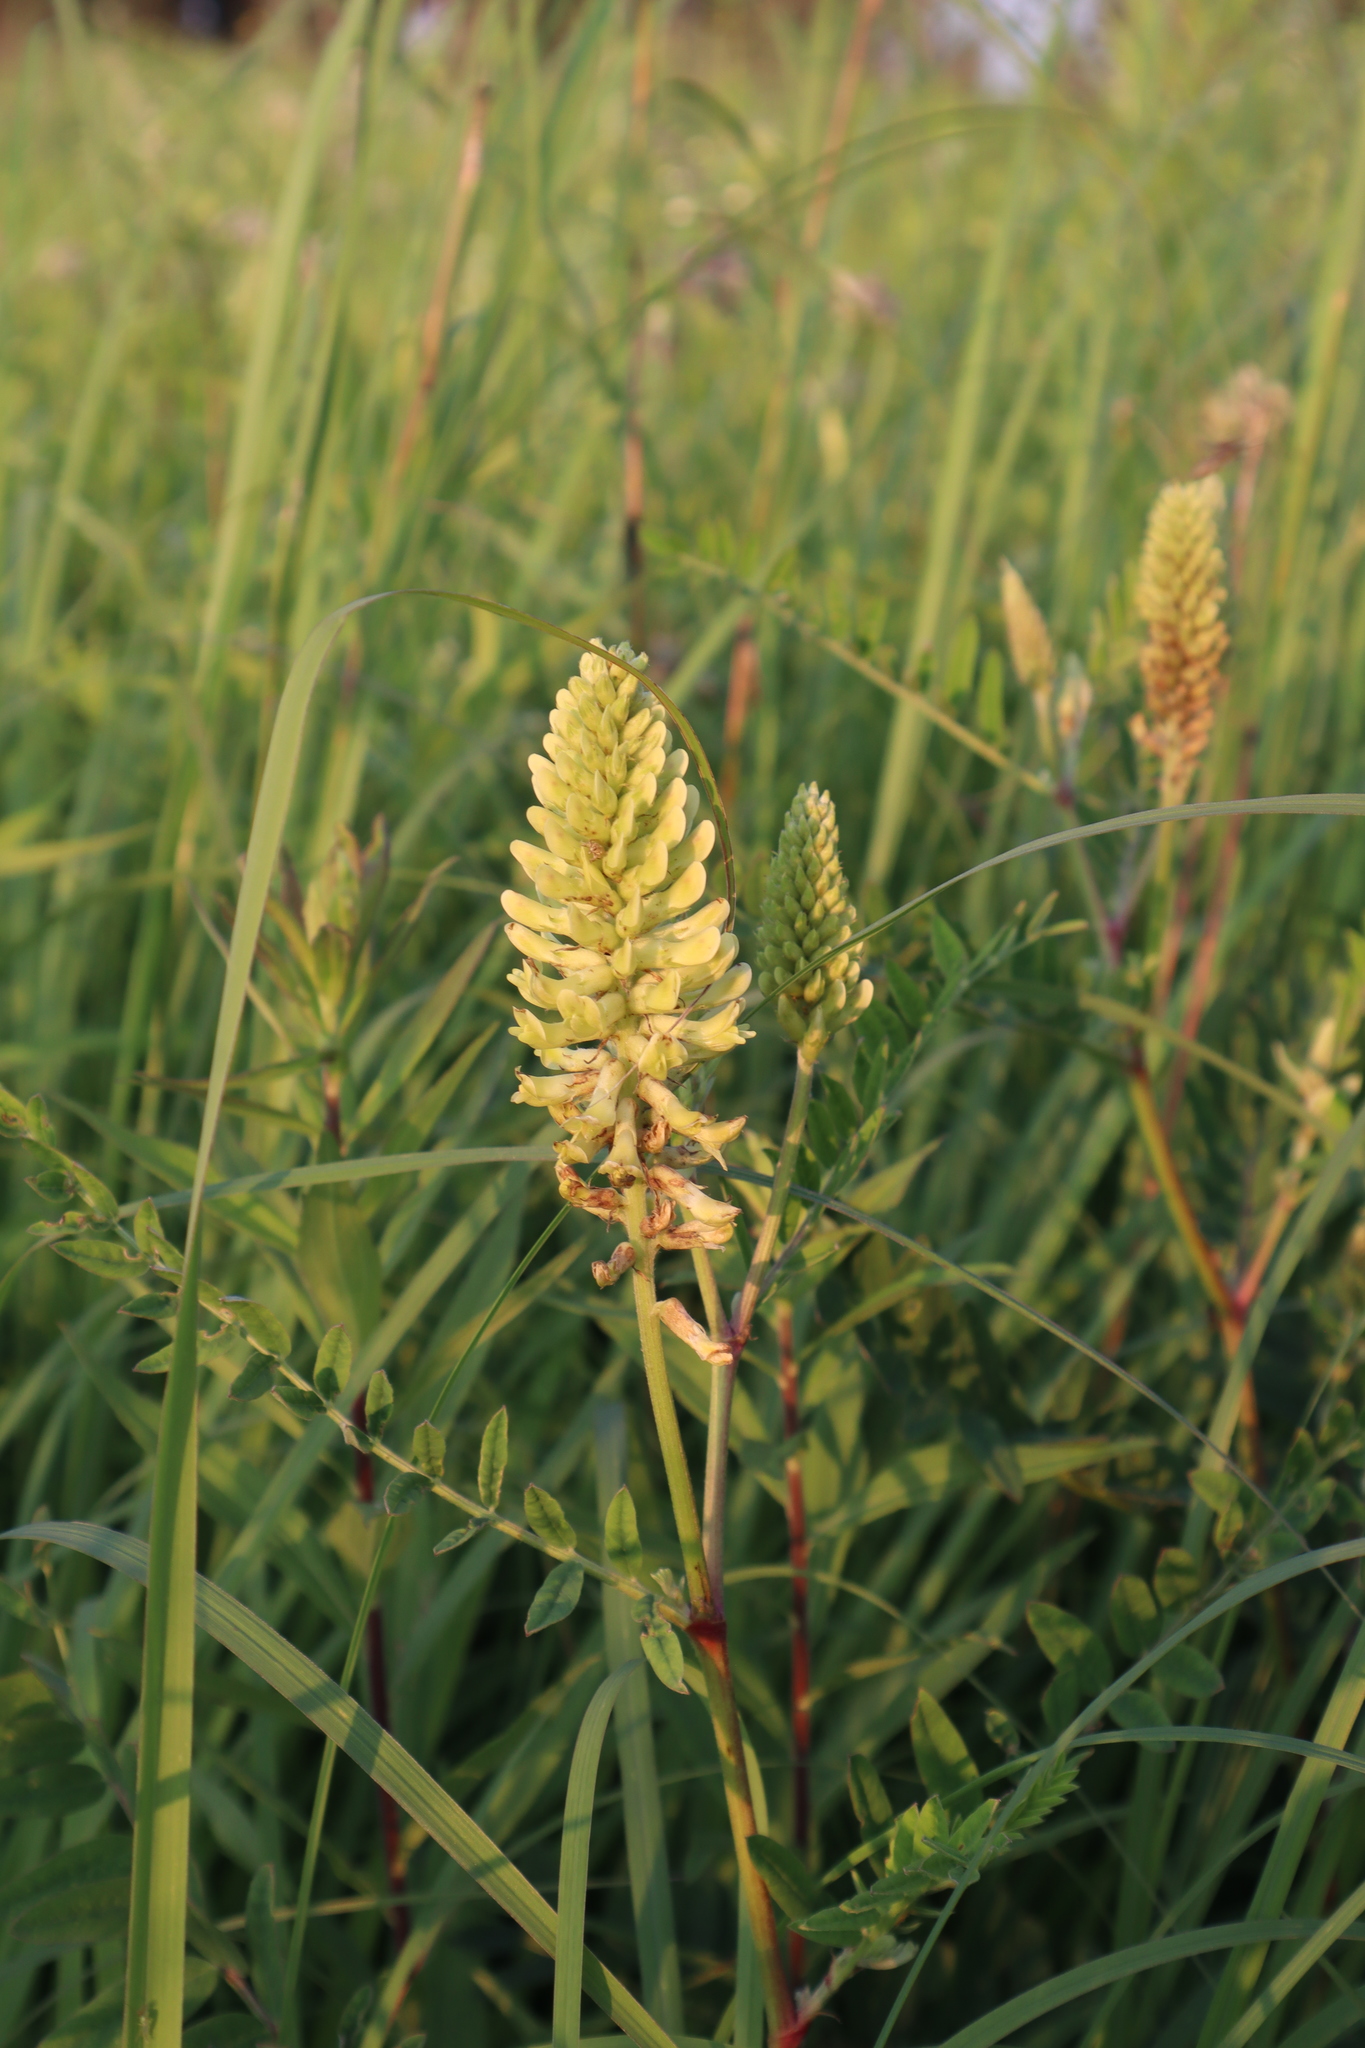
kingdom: Plantae
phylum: Tracheophyta
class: Magnoliopsida
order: Fabales
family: Fabaceae
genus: Astragalus
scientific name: Astragalus canadensis
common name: Canada milk-vetch
